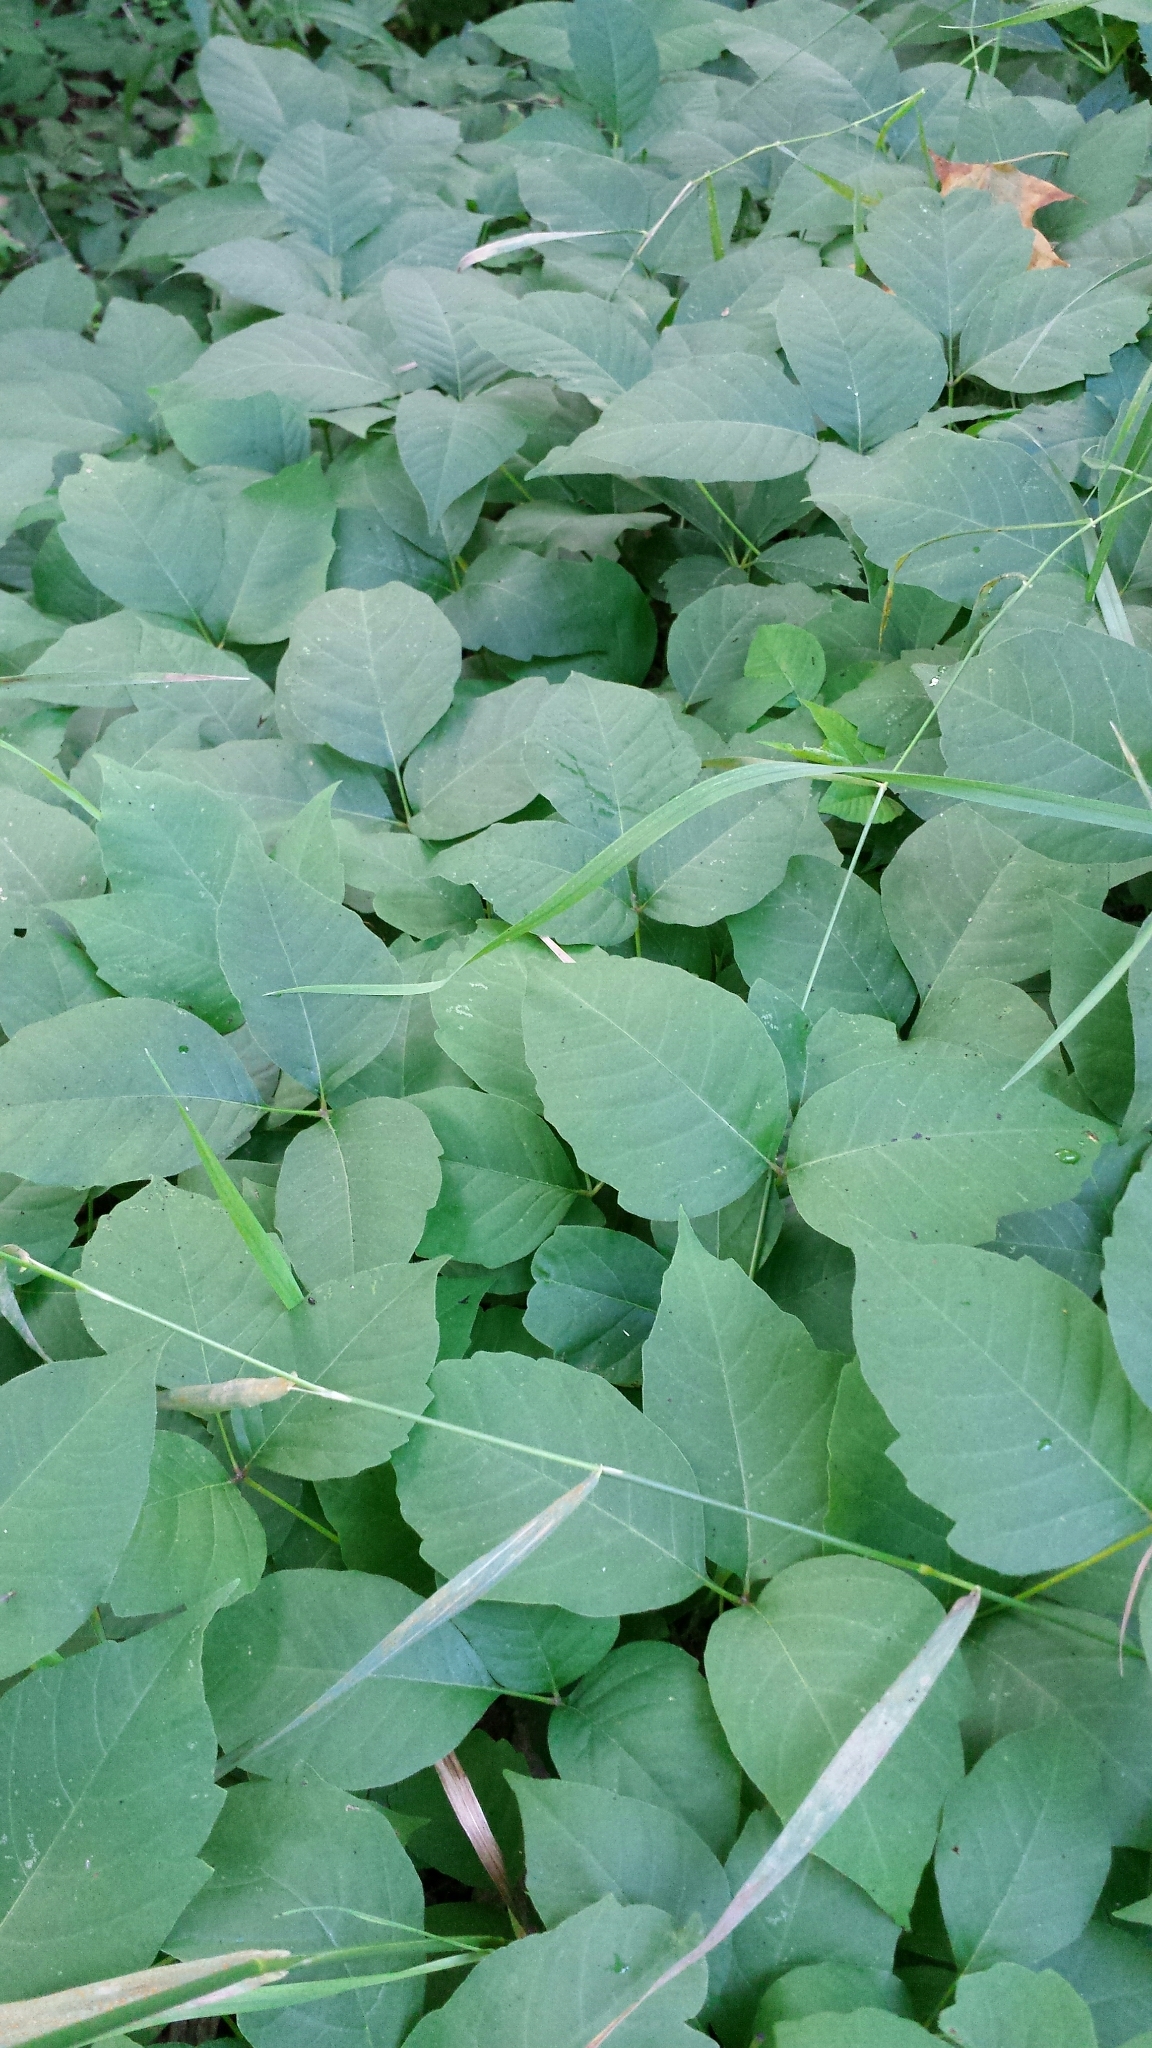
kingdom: Plantae
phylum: Tracheophyta
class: Magnoliopsida
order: Sapindales
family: Anacardiaceae
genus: Toxicodendron
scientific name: Toxicodendron radicans
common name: Poison ivy
